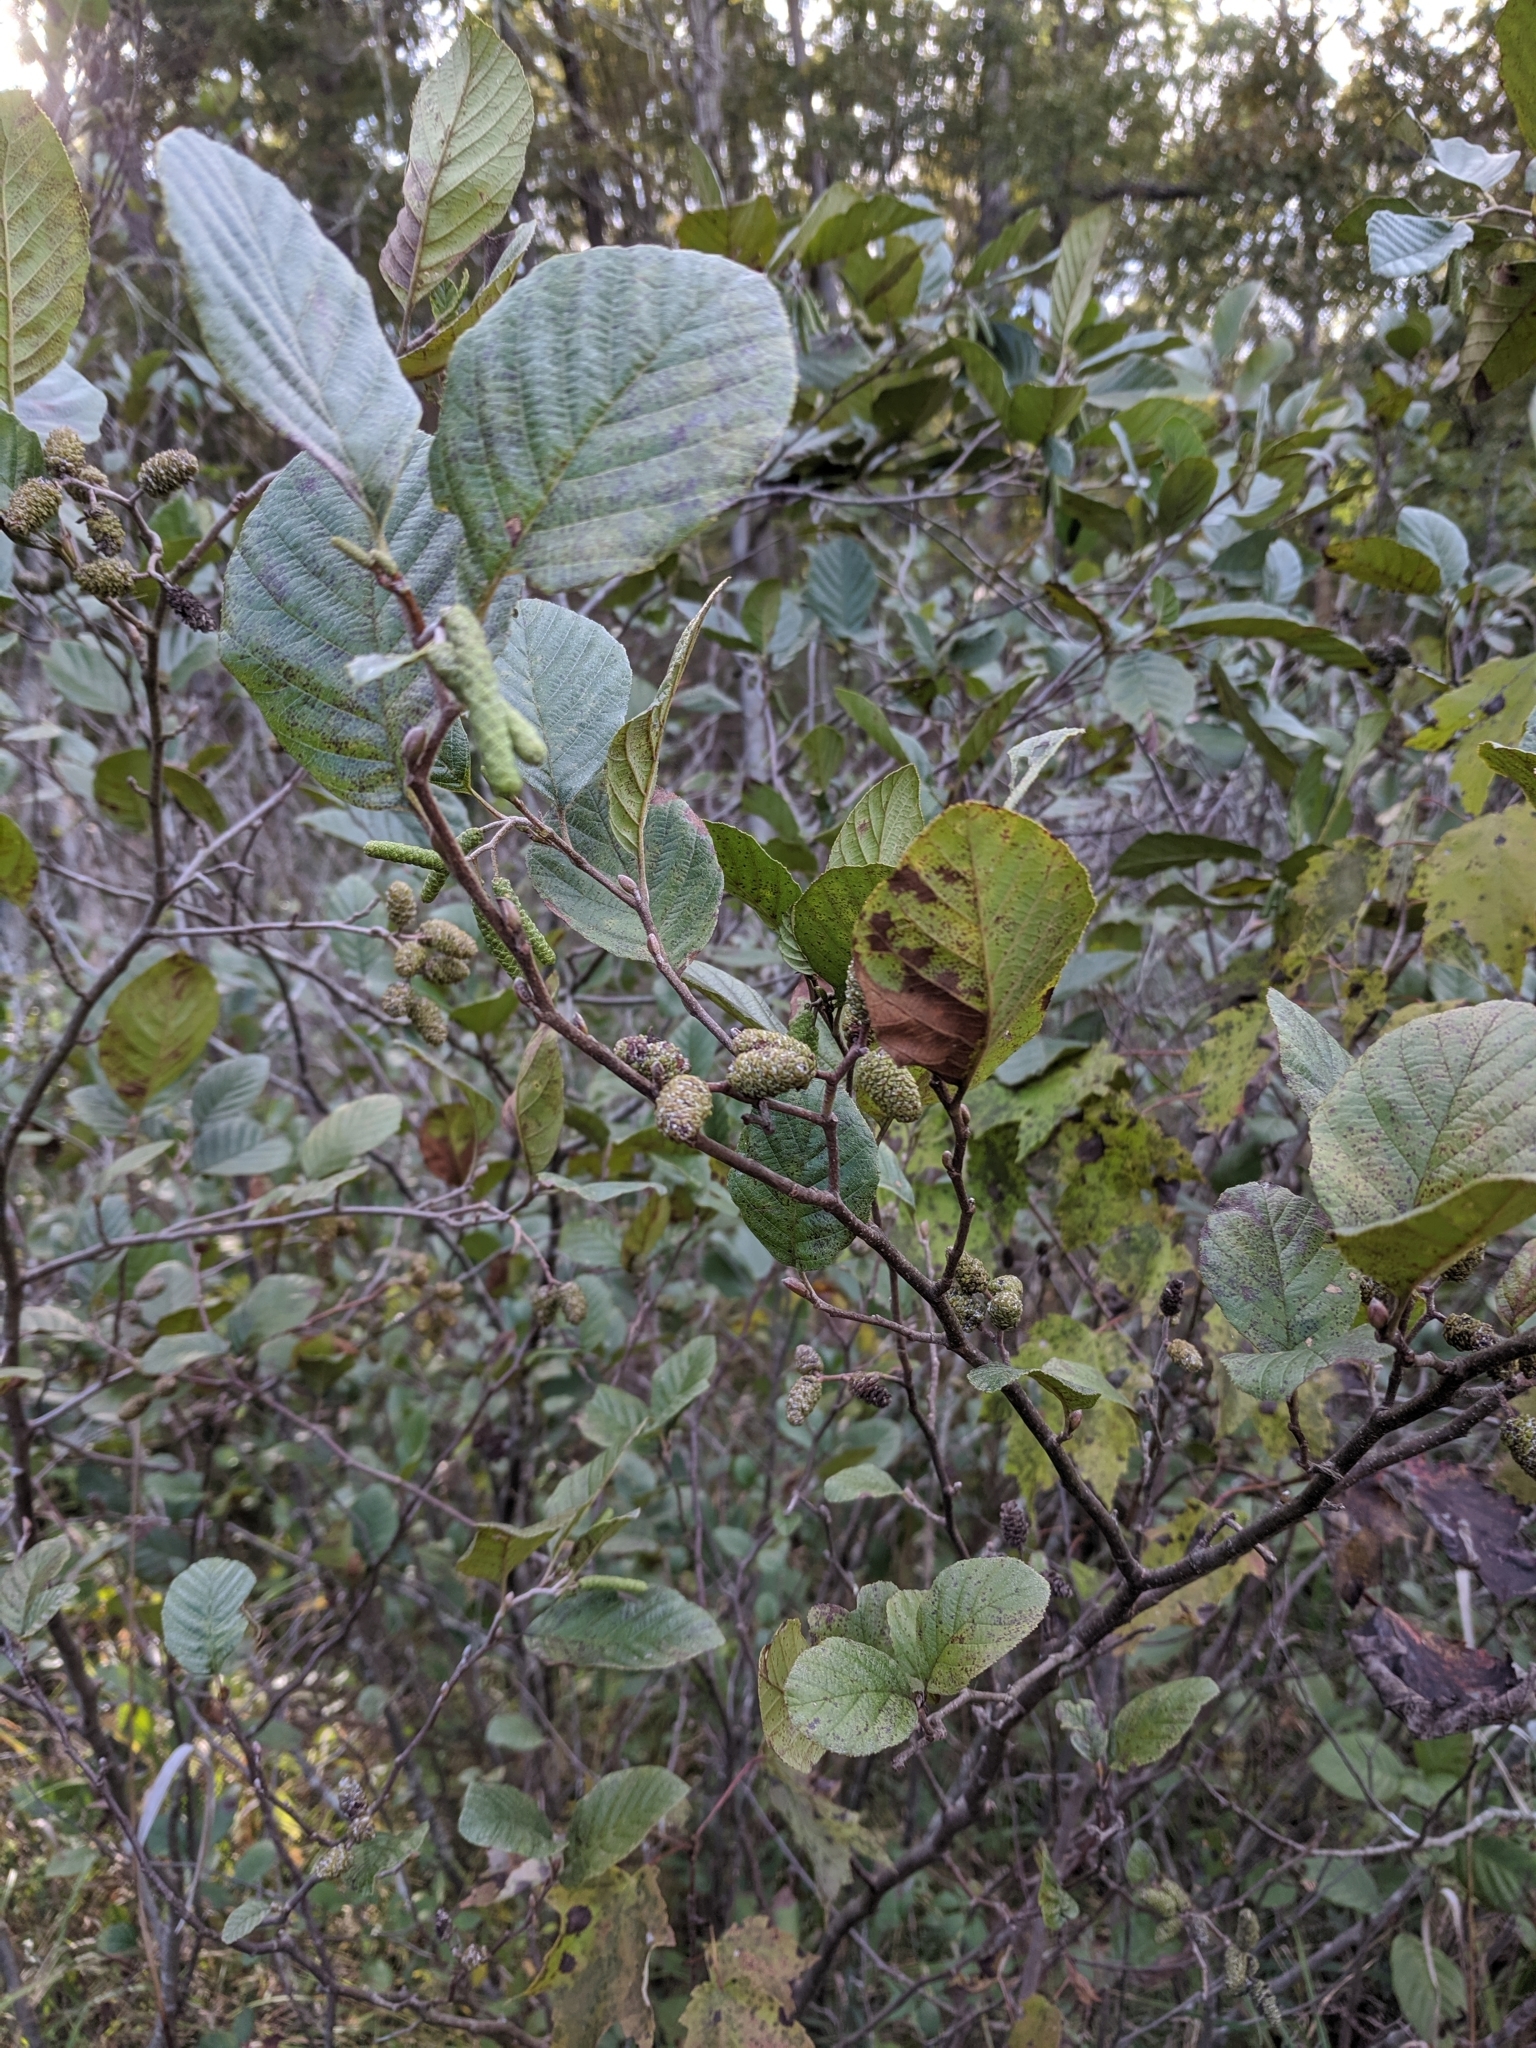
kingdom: Plantae
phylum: Tracheophyta
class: Magnoliopsida
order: Fagales
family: Betulaceae
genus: Alnus
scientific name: Alnus serrulata
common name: Hazel alder
